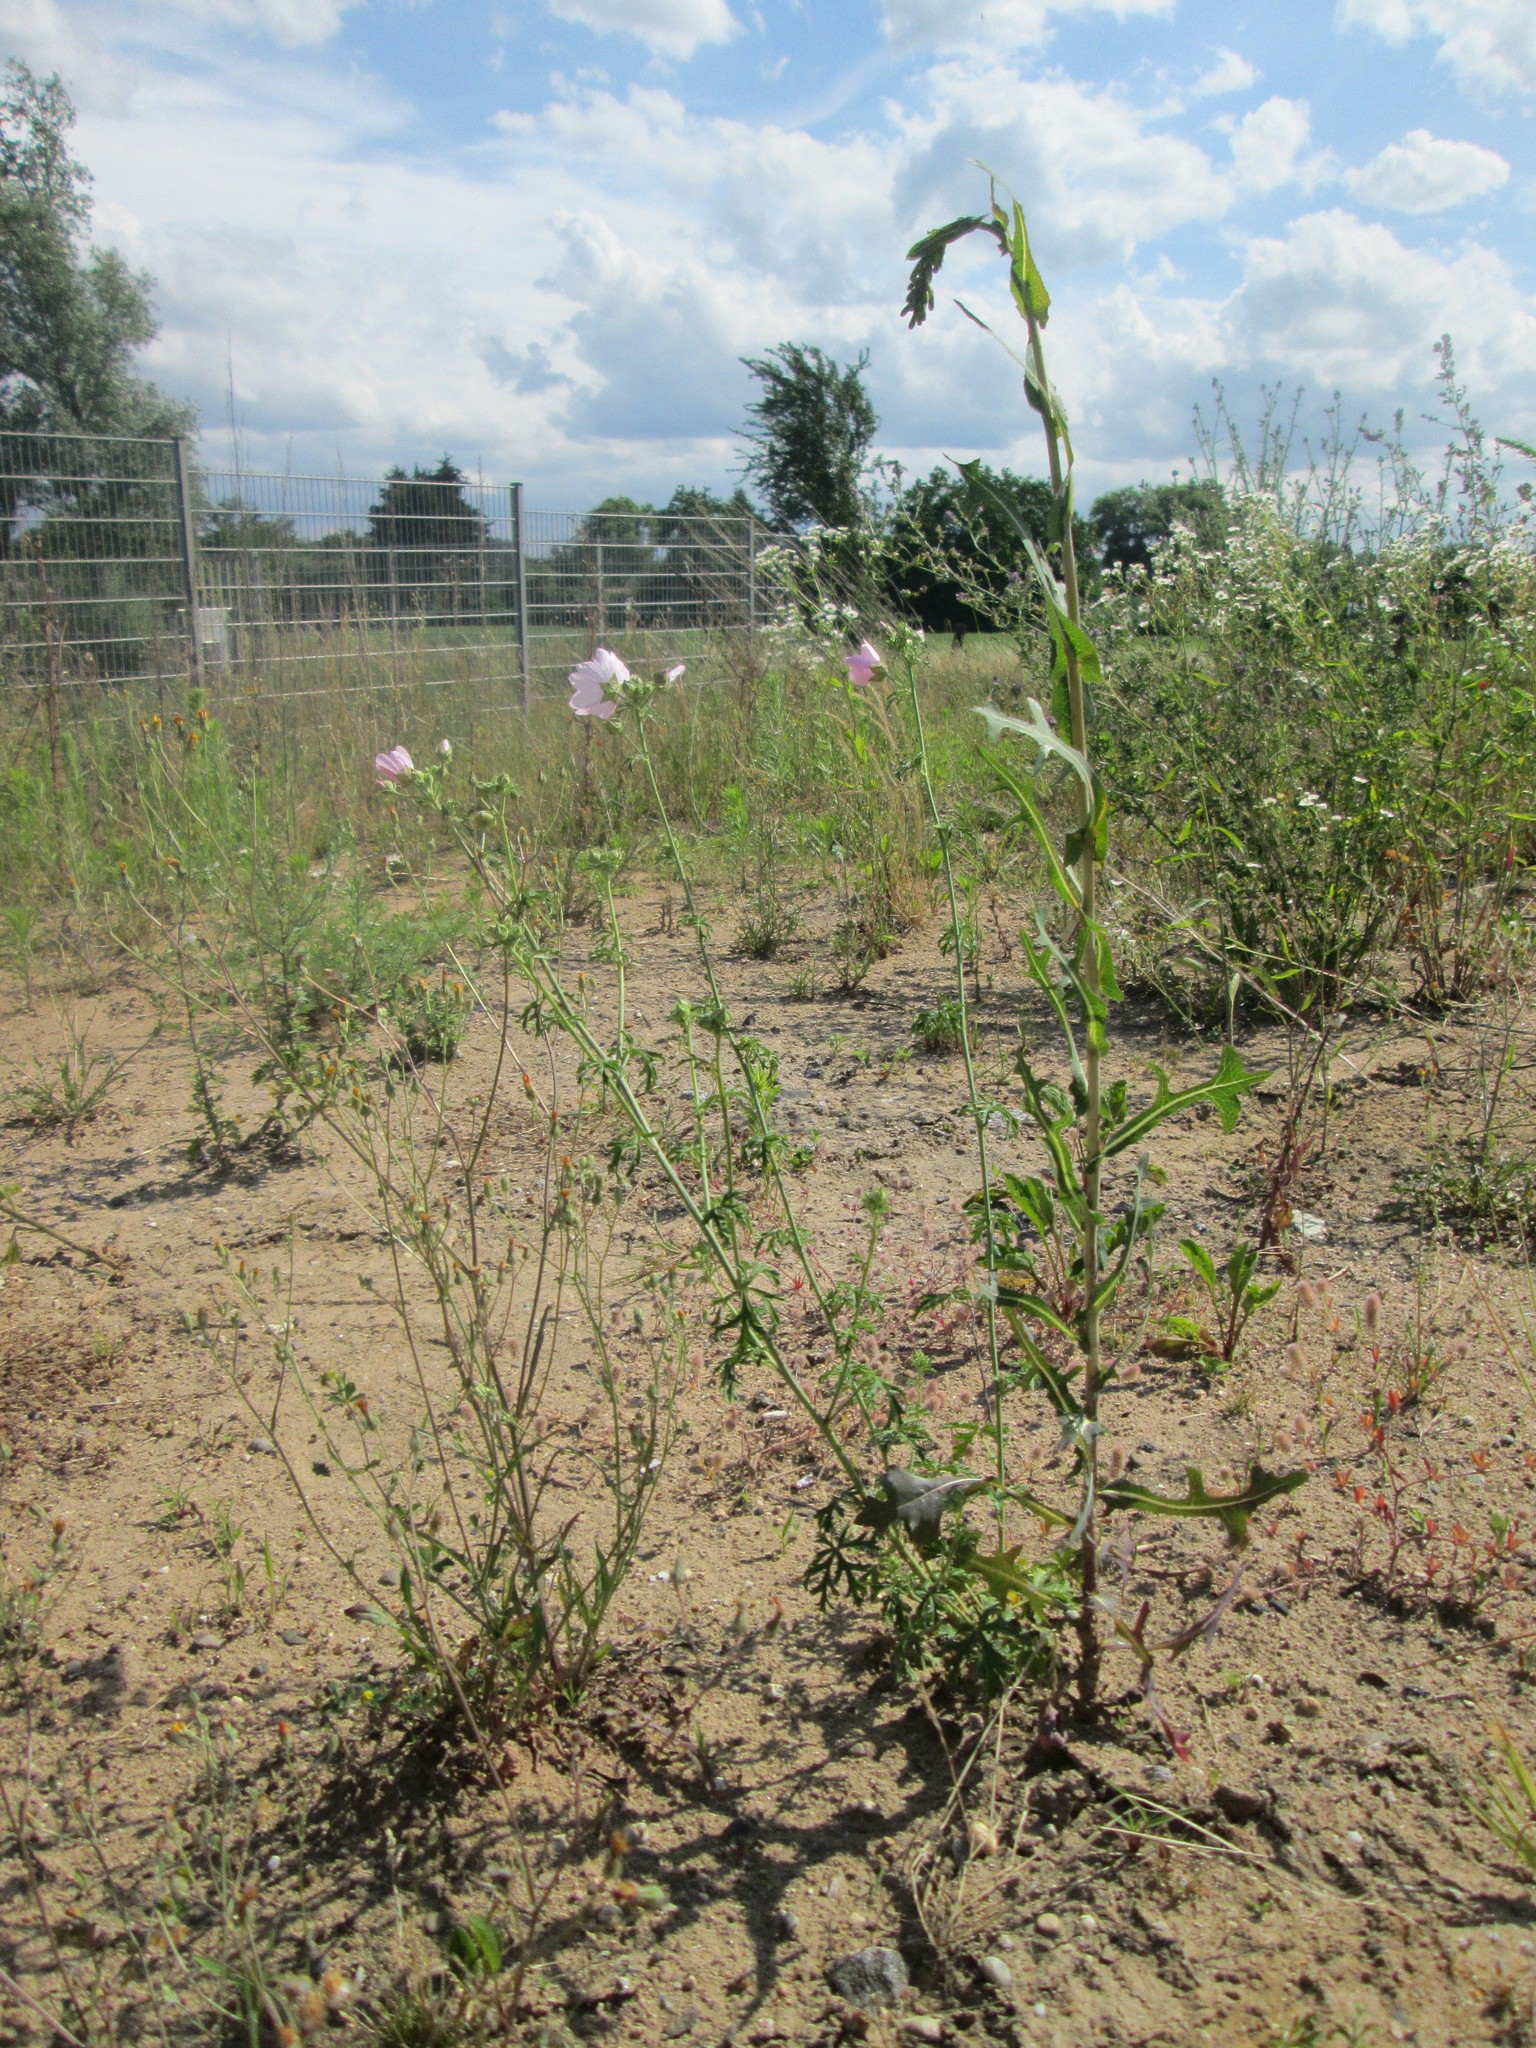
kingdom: Plantae
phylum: Tracheophyta
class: Magnoliopsida
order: Malvales
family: Malvaceae
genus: Malva
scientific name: Malva alcea
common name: Greater musk-mallow
